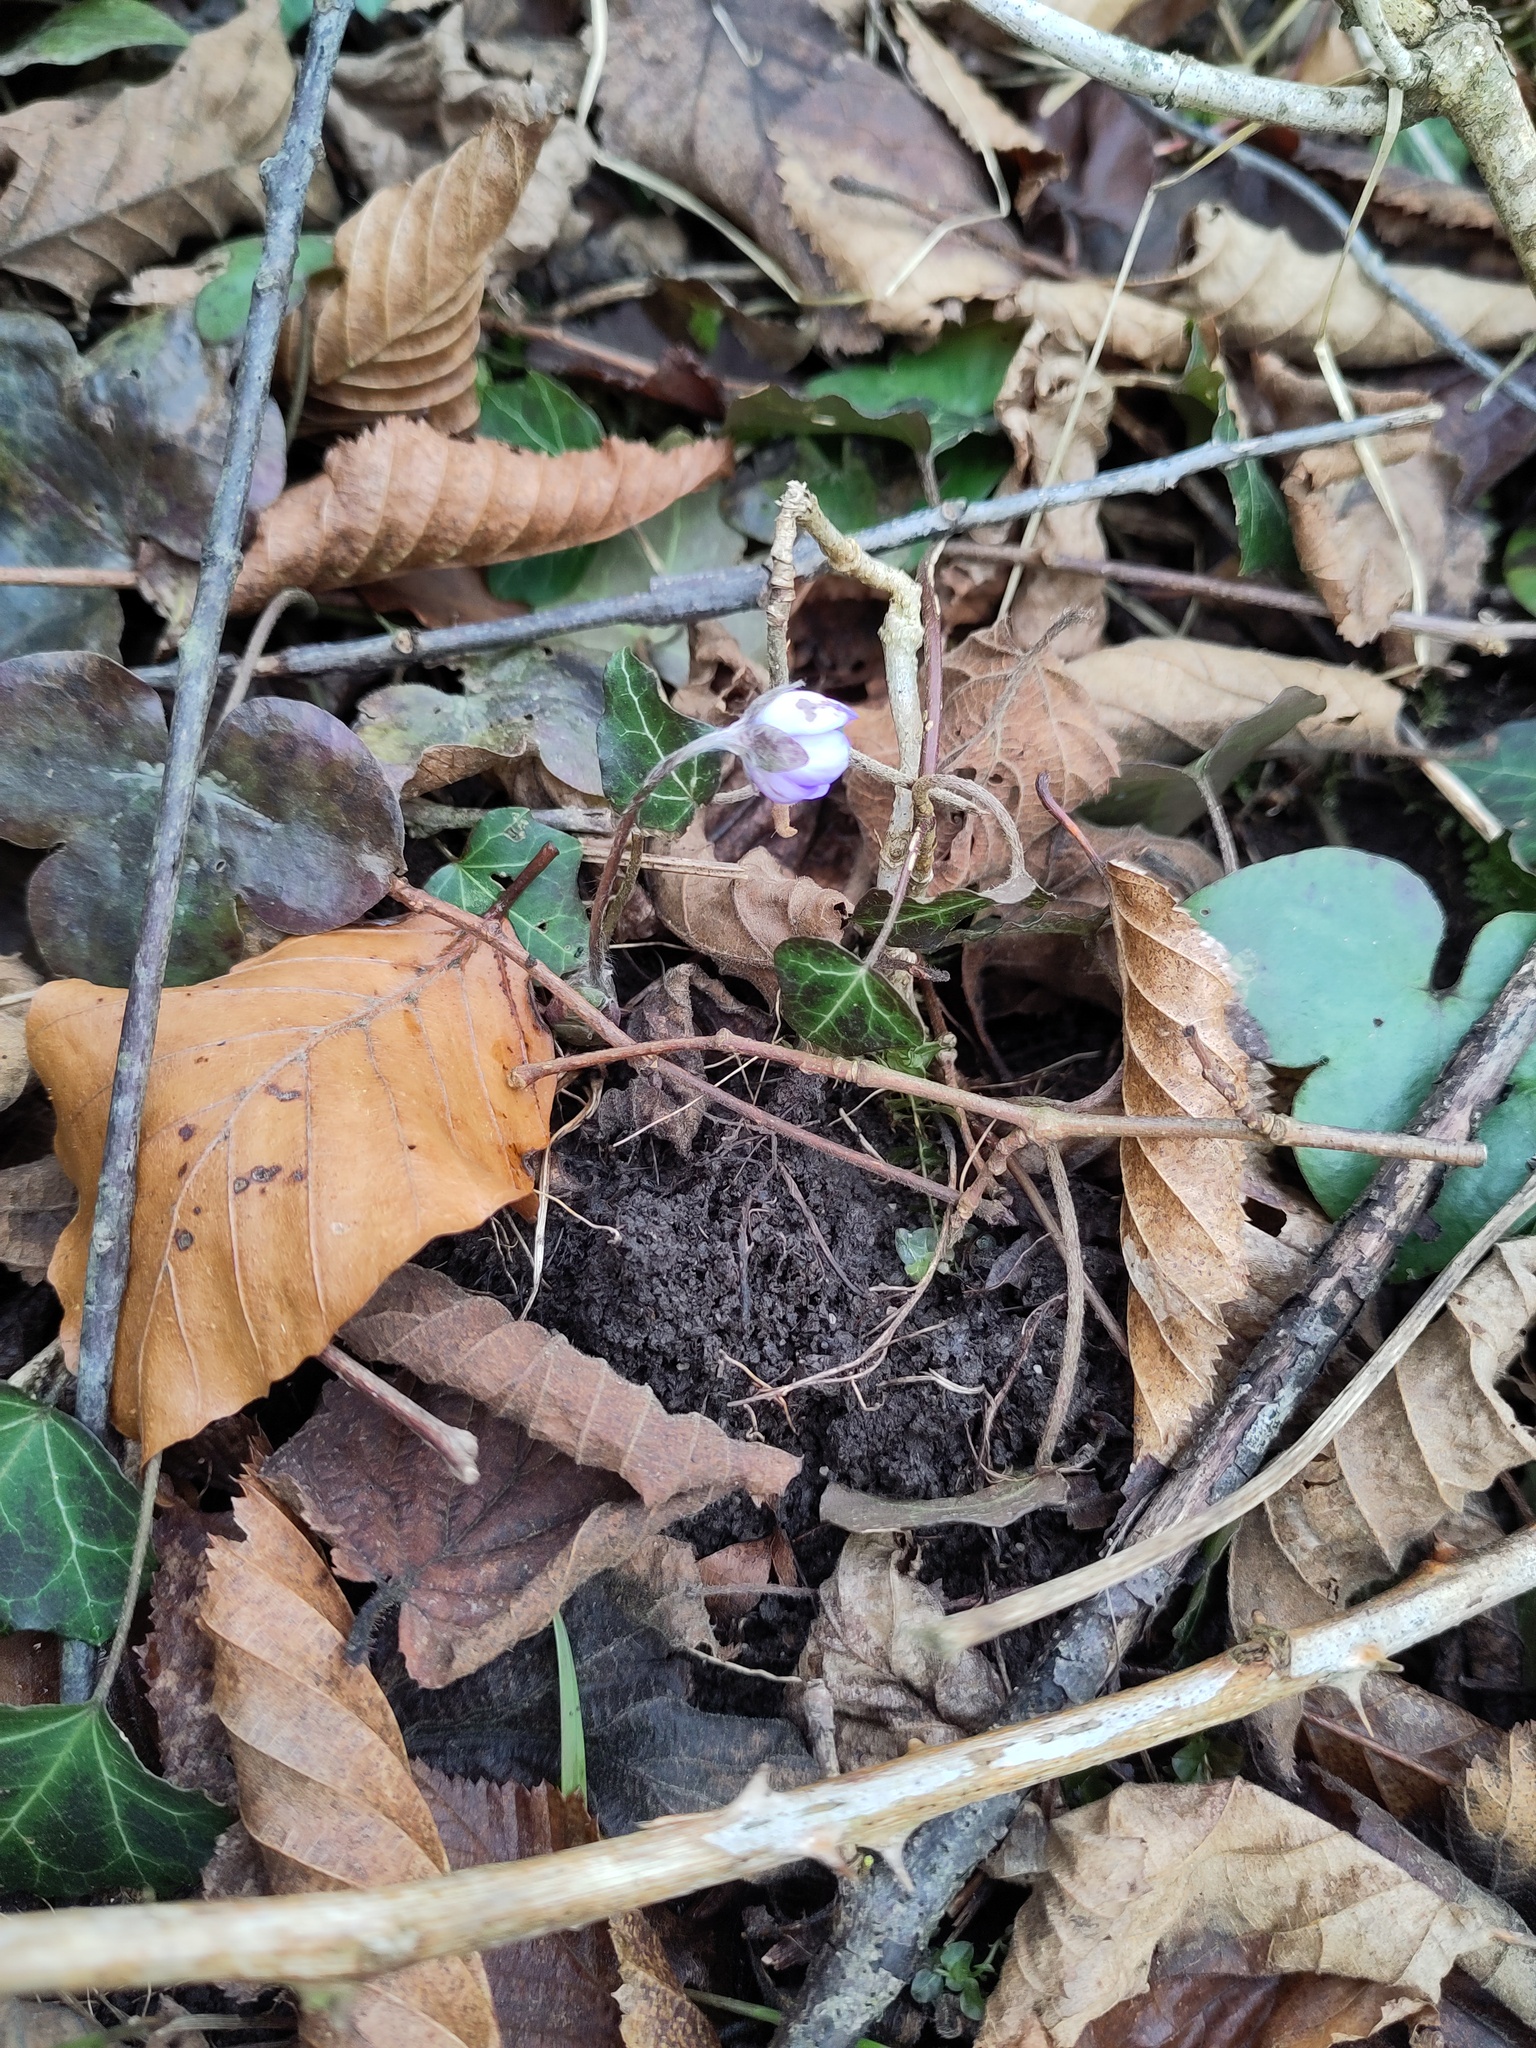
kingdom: Plantae
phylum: Tracheophyta
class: Magnoliopsida
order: Ranunculales
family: Ranunculaceae
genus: Hepatica
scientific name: Hepatica nobilis
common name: Liverleaf
